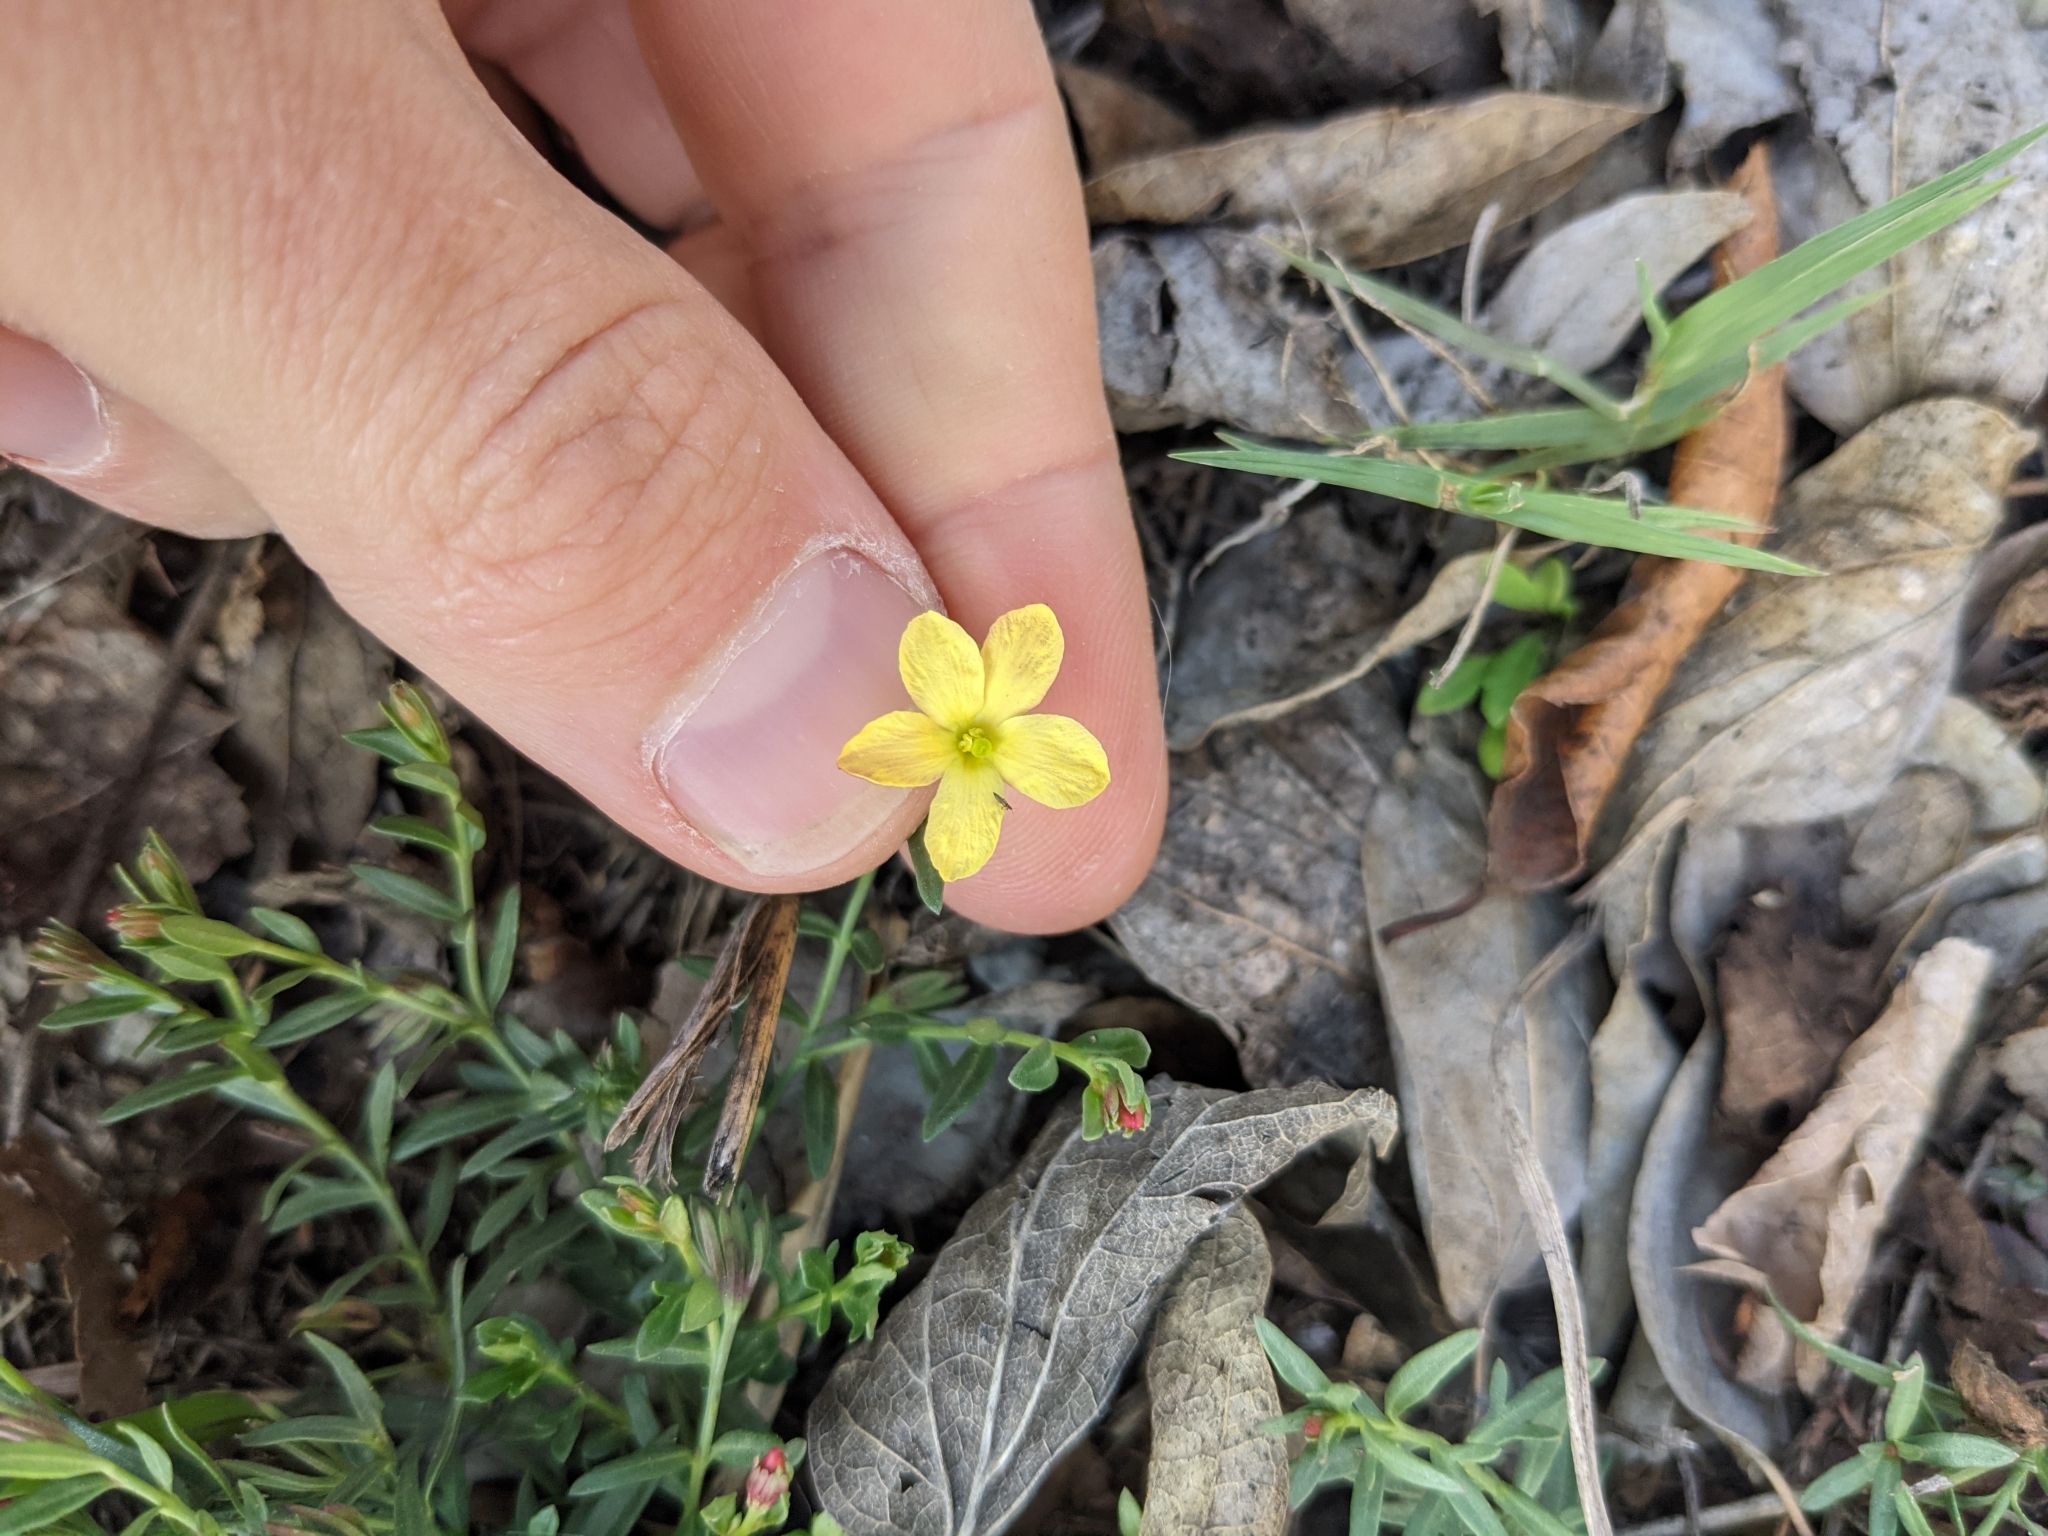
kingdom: Plantae
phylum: Tracheophyta
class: Magnoliopsida
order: Lamiales
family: Oleaceae
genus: Menodora
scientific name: Menodora heterophylla
